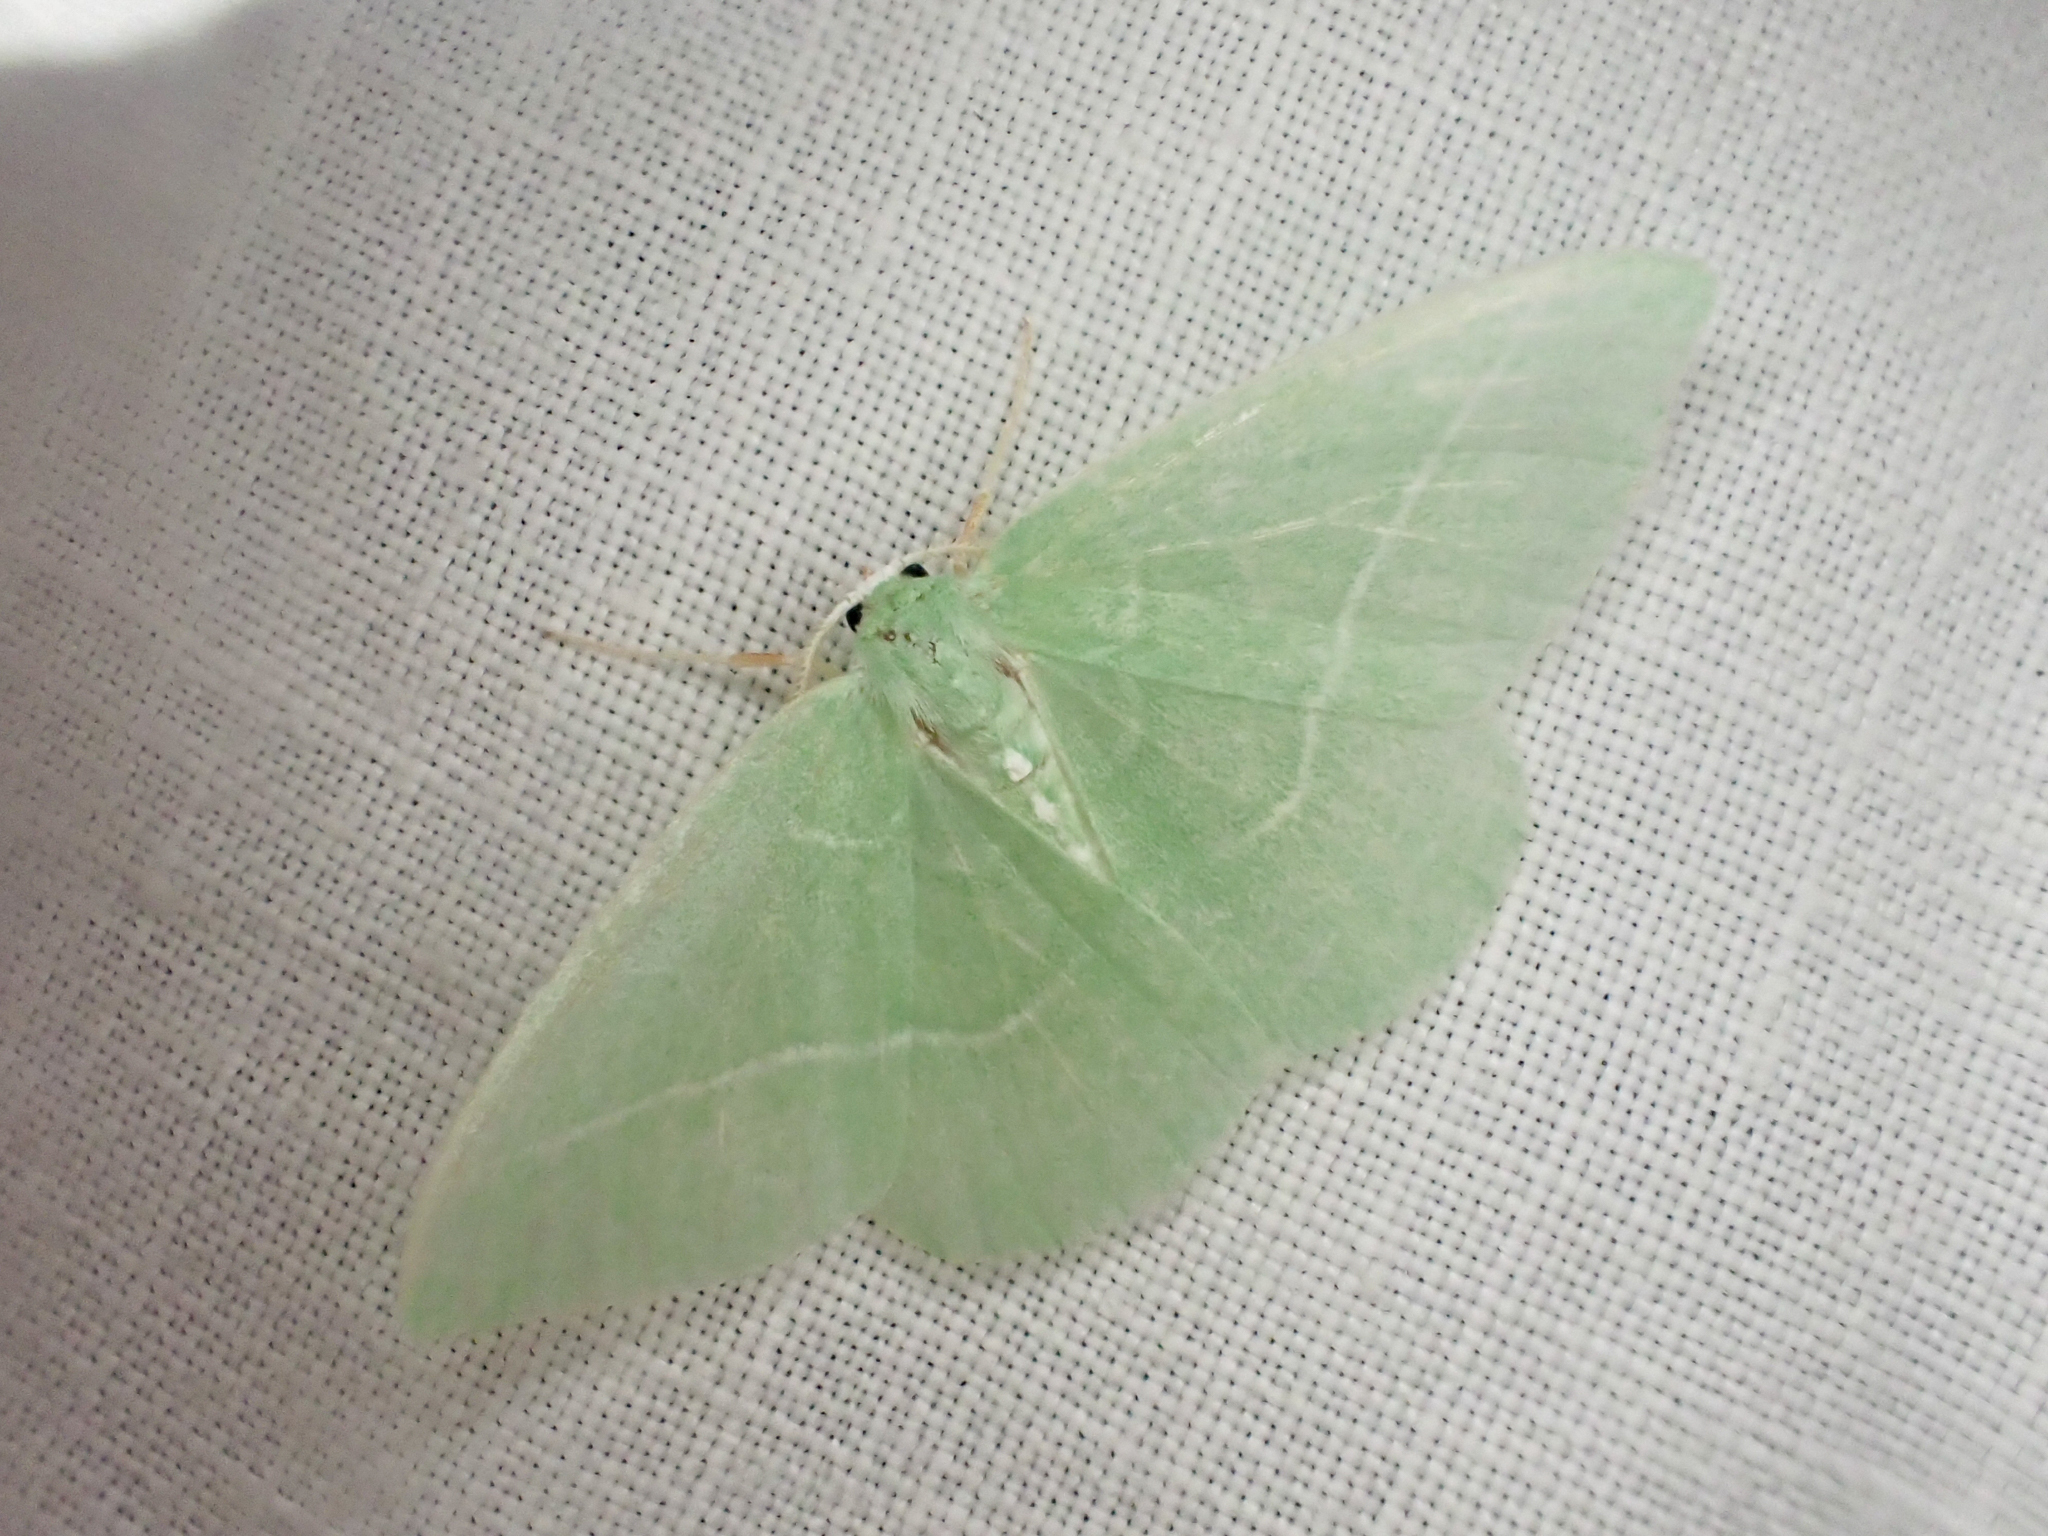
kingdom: Animalia
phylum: Arthropoda
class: Insecta
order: Lepidoptera
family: Geometridae
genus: Nemoria
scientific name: Nemoria unitaria
